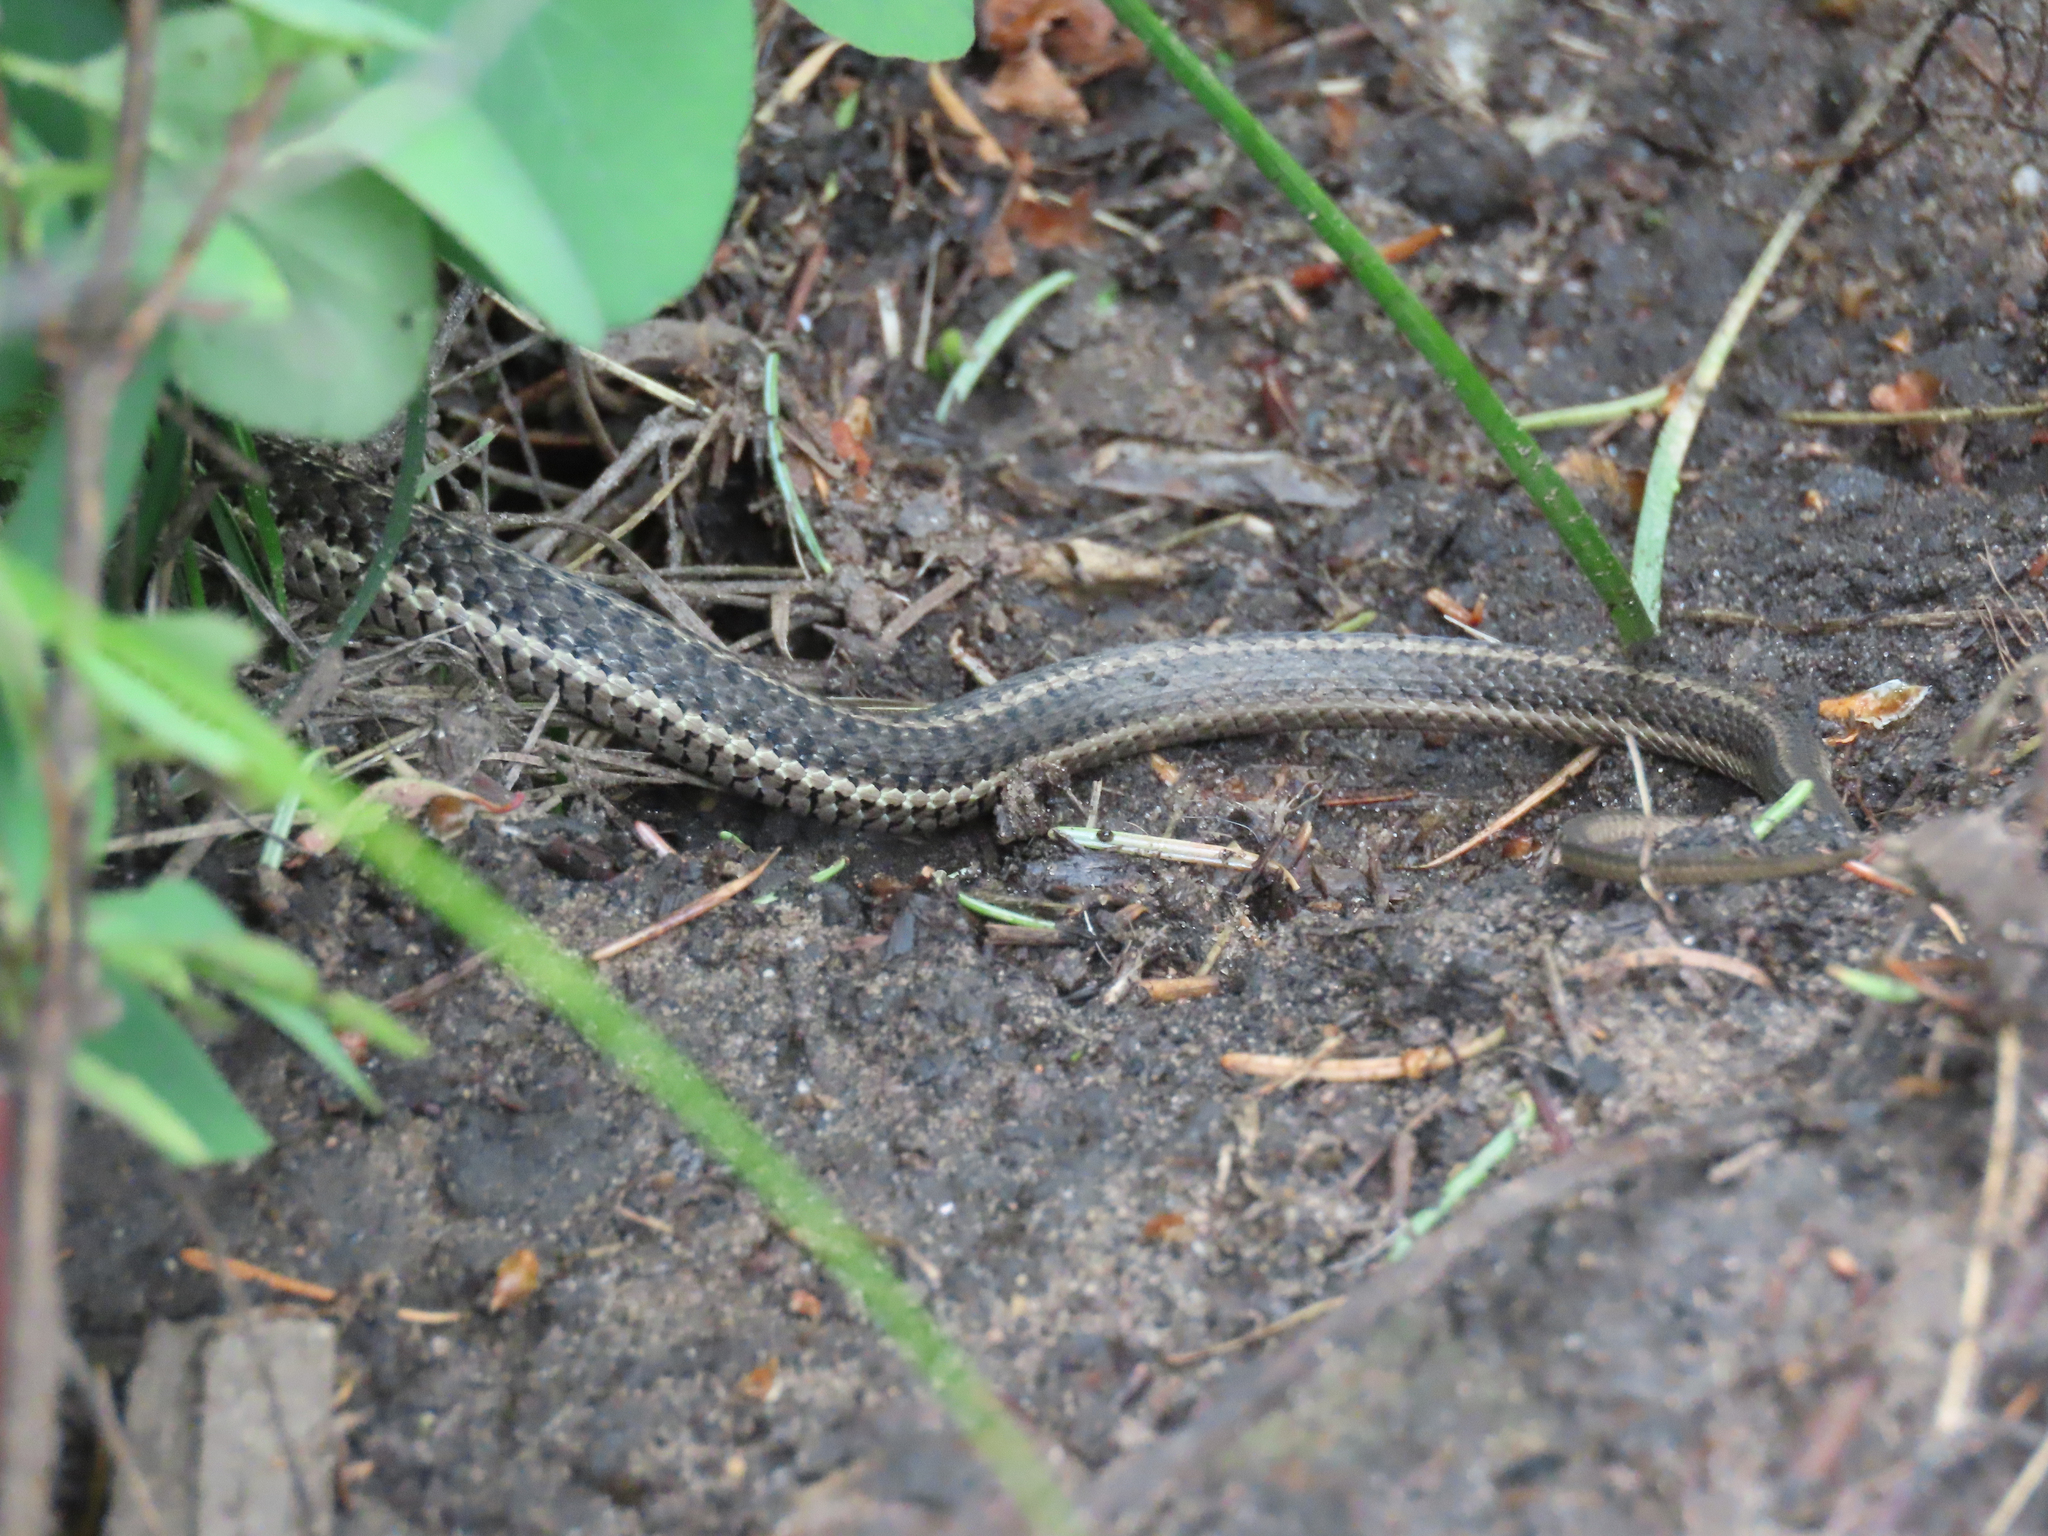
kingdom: Animalia
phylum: Chordata
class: Squamata
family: Colubridae
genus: Thamnophis
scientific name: Thamnophis elegans
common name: Western terrestrial garter snake
